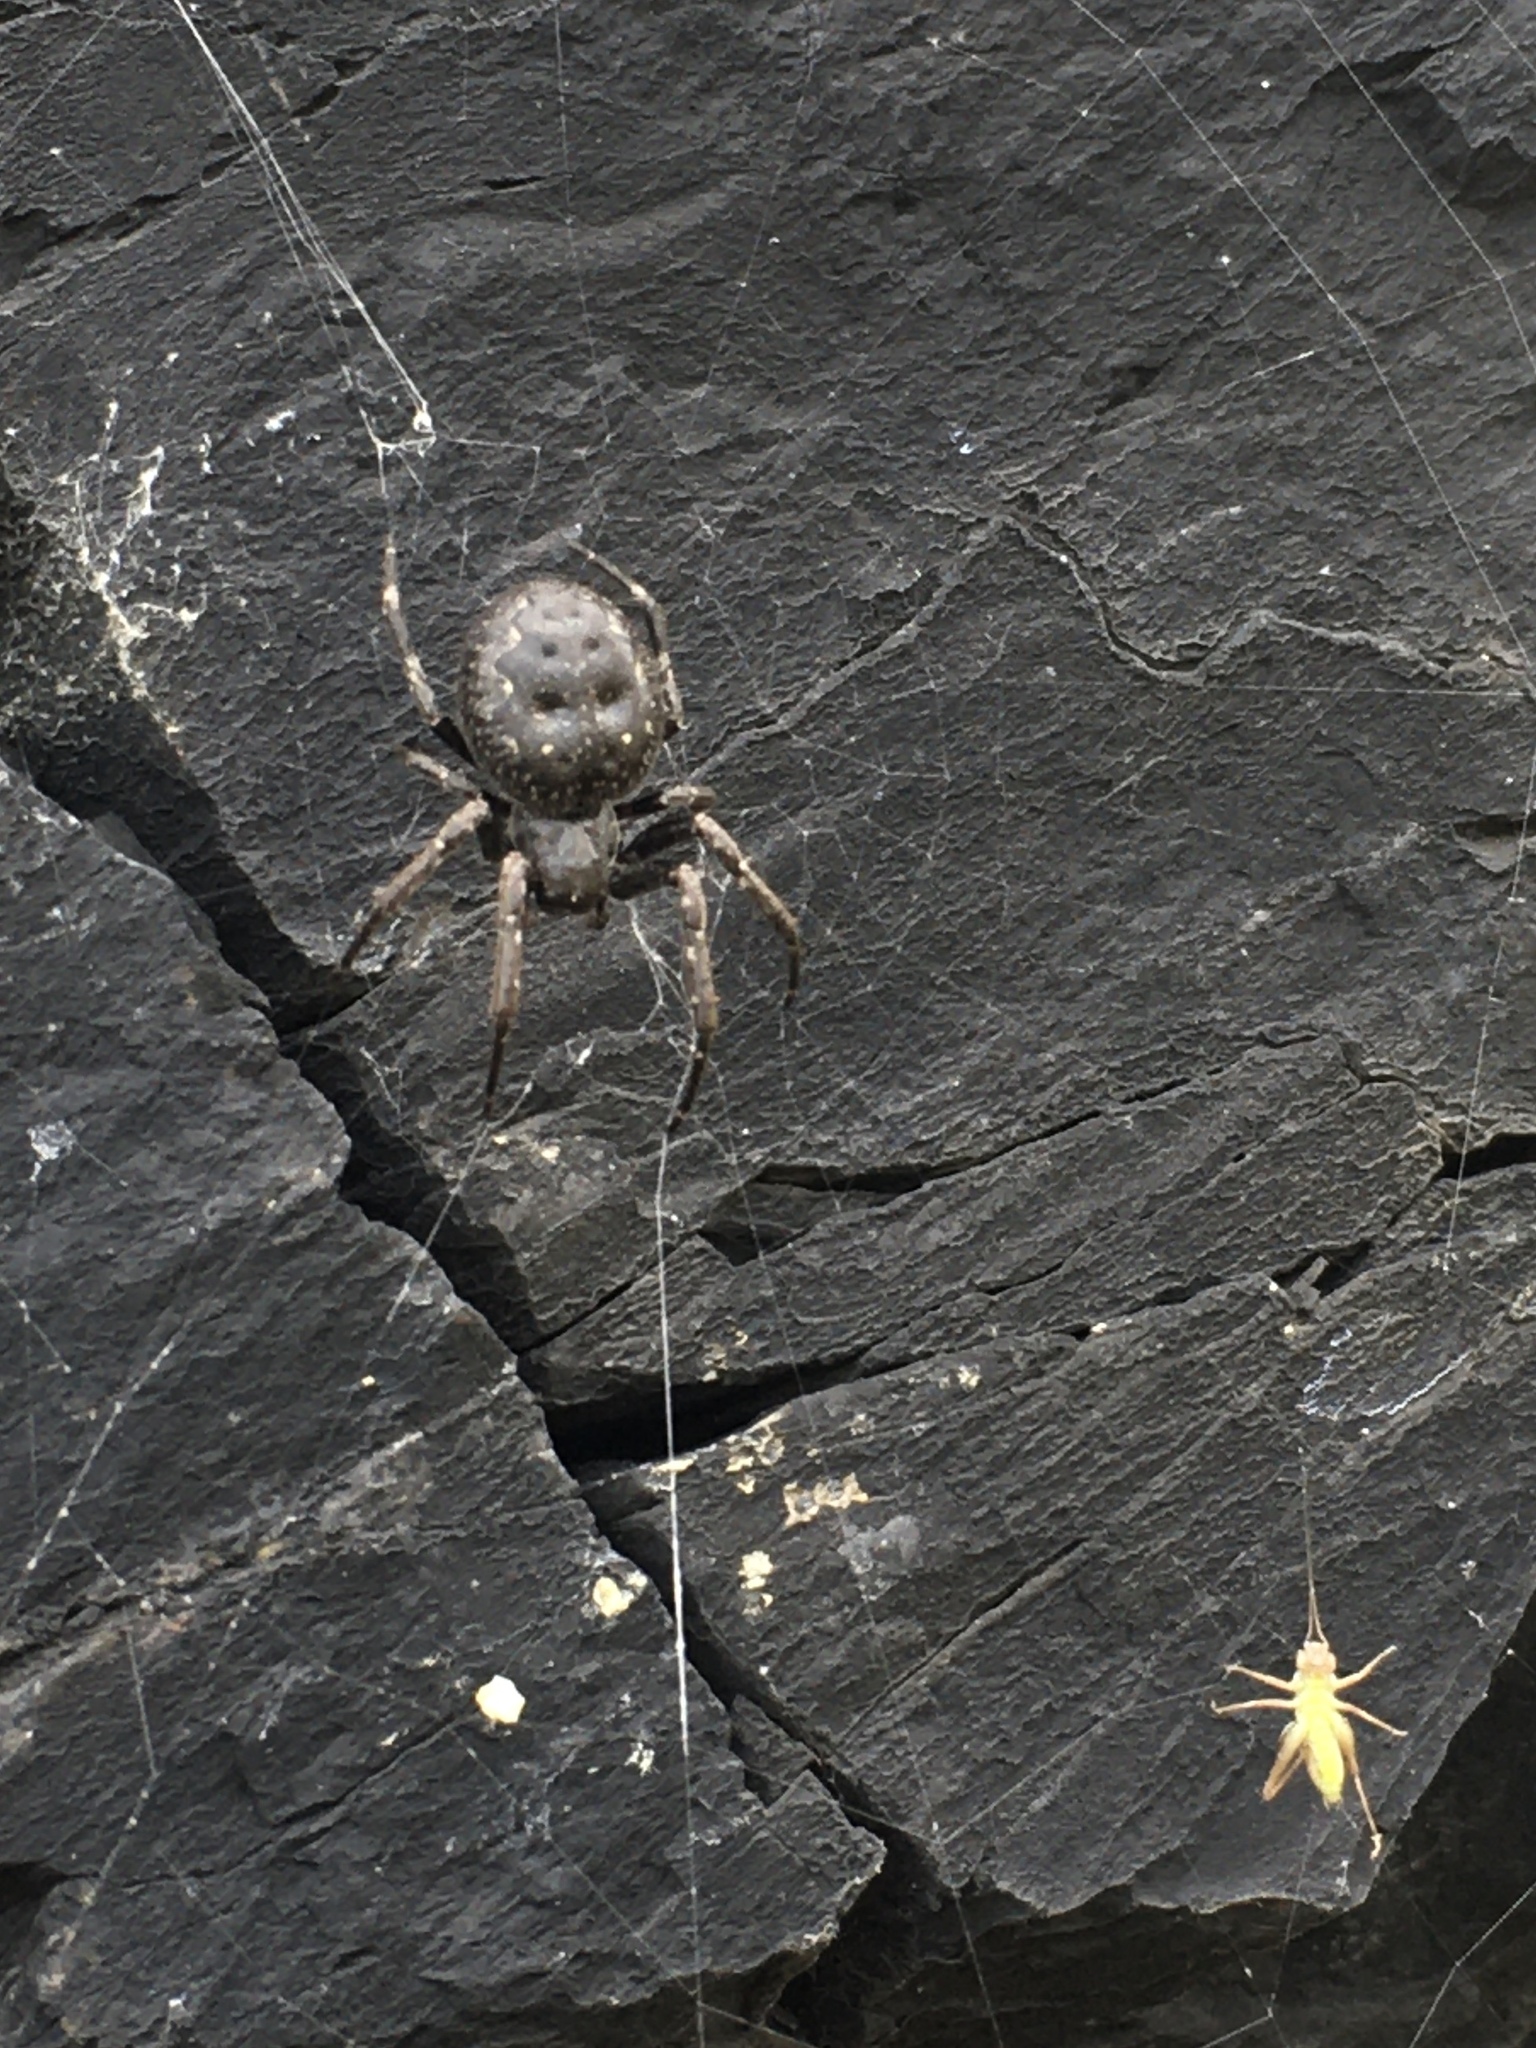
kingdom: Animalia
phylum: Arthropoda
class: Arachnida
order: Araneae
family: Araneidae
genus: Nuctenea
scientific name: Nuctenea umbratica
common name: Toad spider
